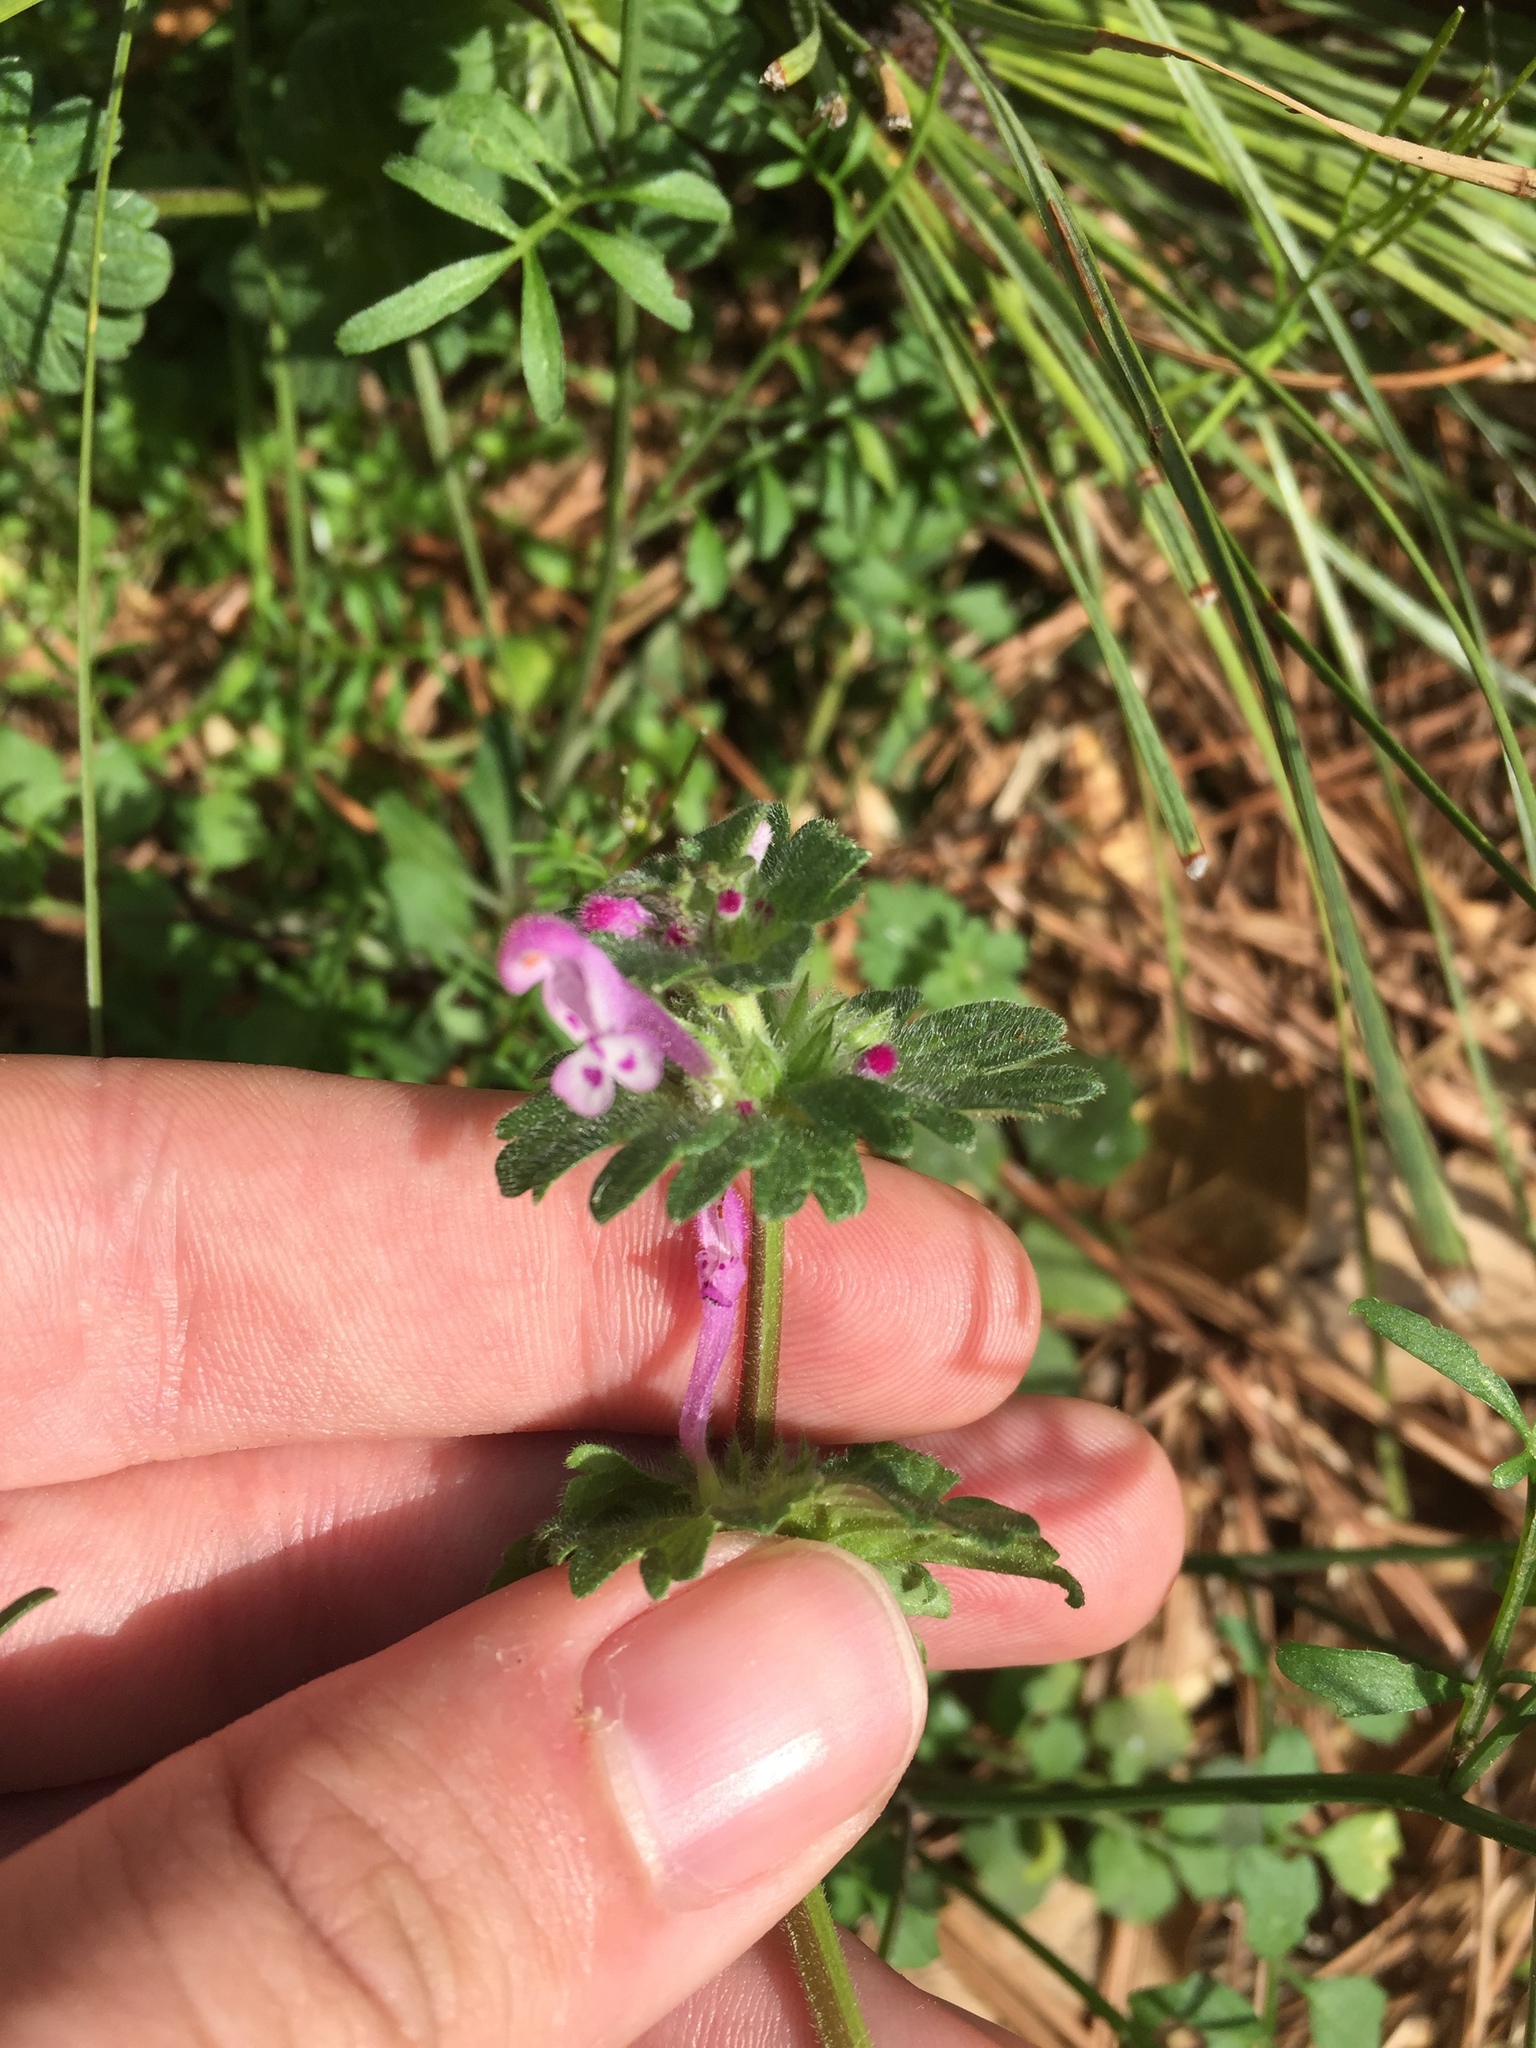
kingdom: Plantae
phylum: Tracheophyta
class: Magnoliopsida
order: Lamiales
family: Lamiaceae
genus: Lamium
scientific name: Lamium amplexicaule
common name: Henbit dead-nettle
